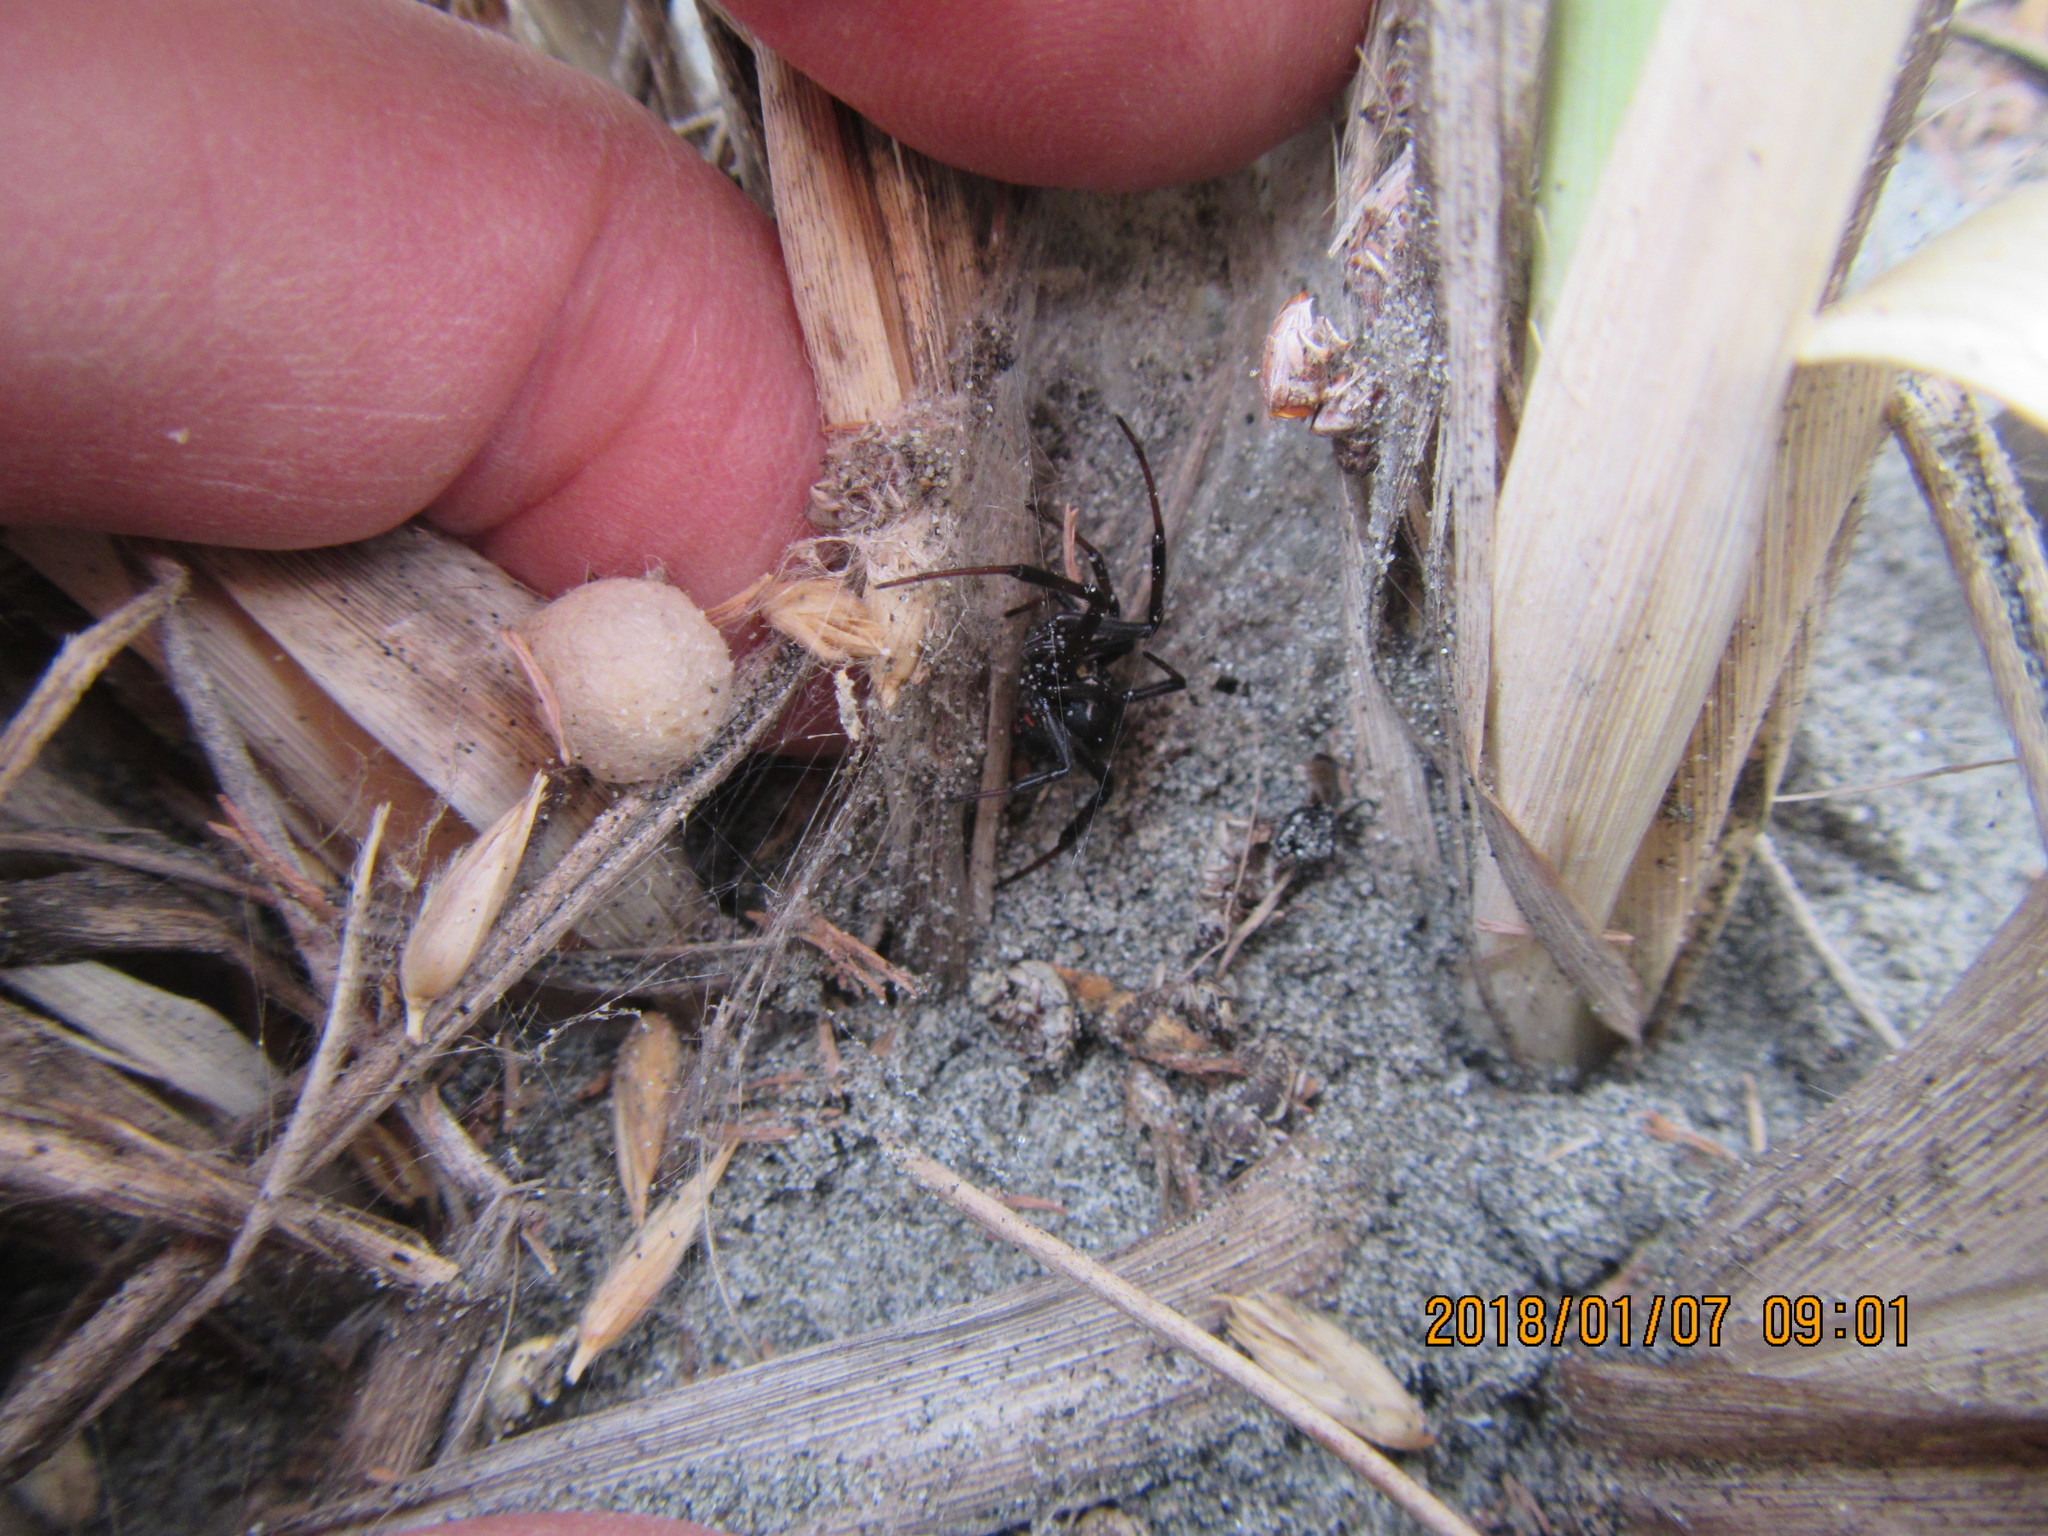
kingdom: Animalia
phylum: Arthropoda
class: Arachnida
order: Araneae
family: Theridiidae
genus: Latrodectus
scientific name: Latrodectus katipo
